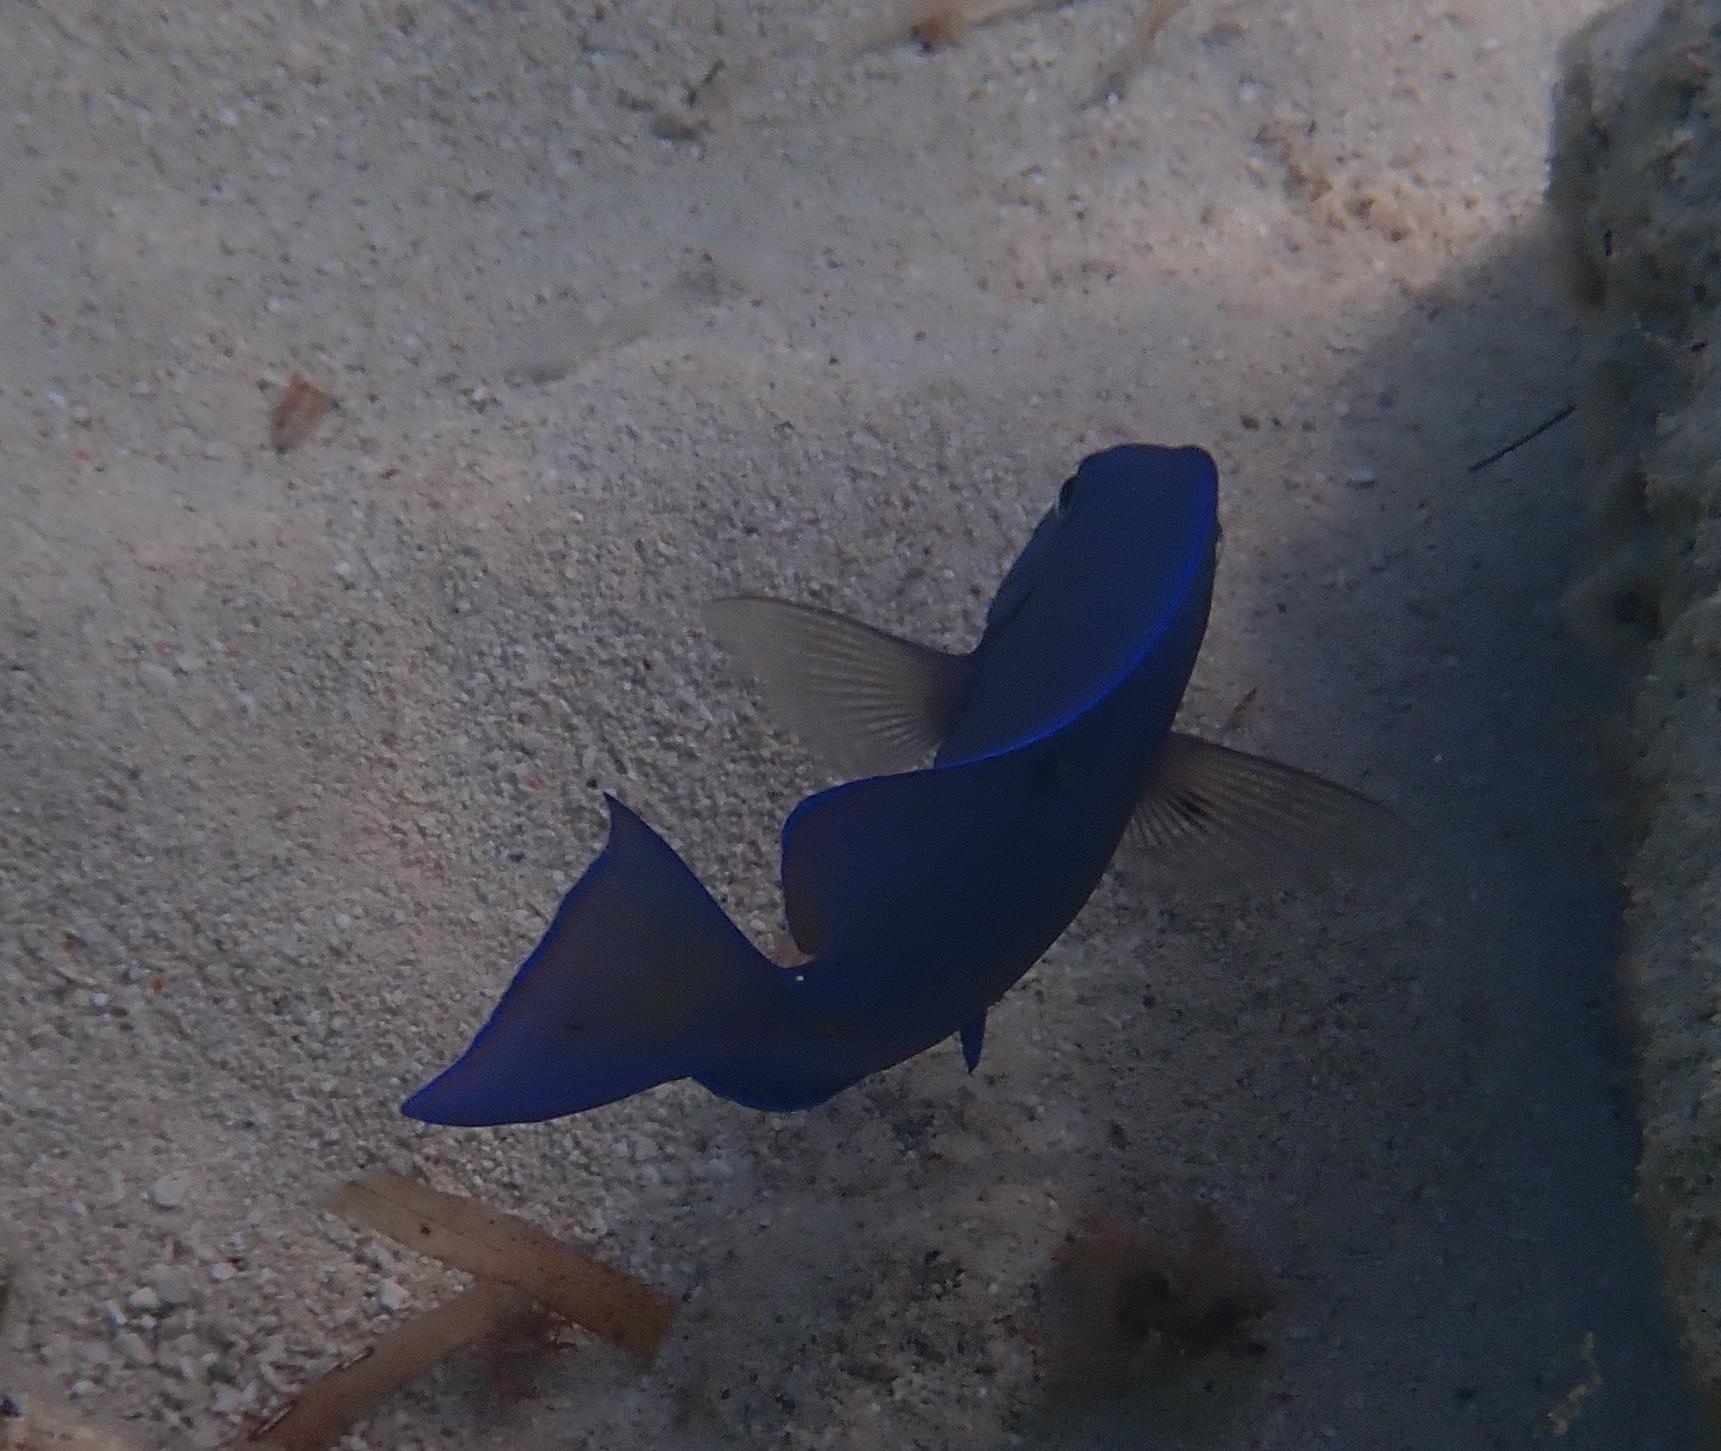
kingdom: Animalia
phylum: Chordata
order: Perciformes
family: Acanthuridae
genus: Acanthurus
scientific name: Acanthurus coeruleus
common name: Blue tang
